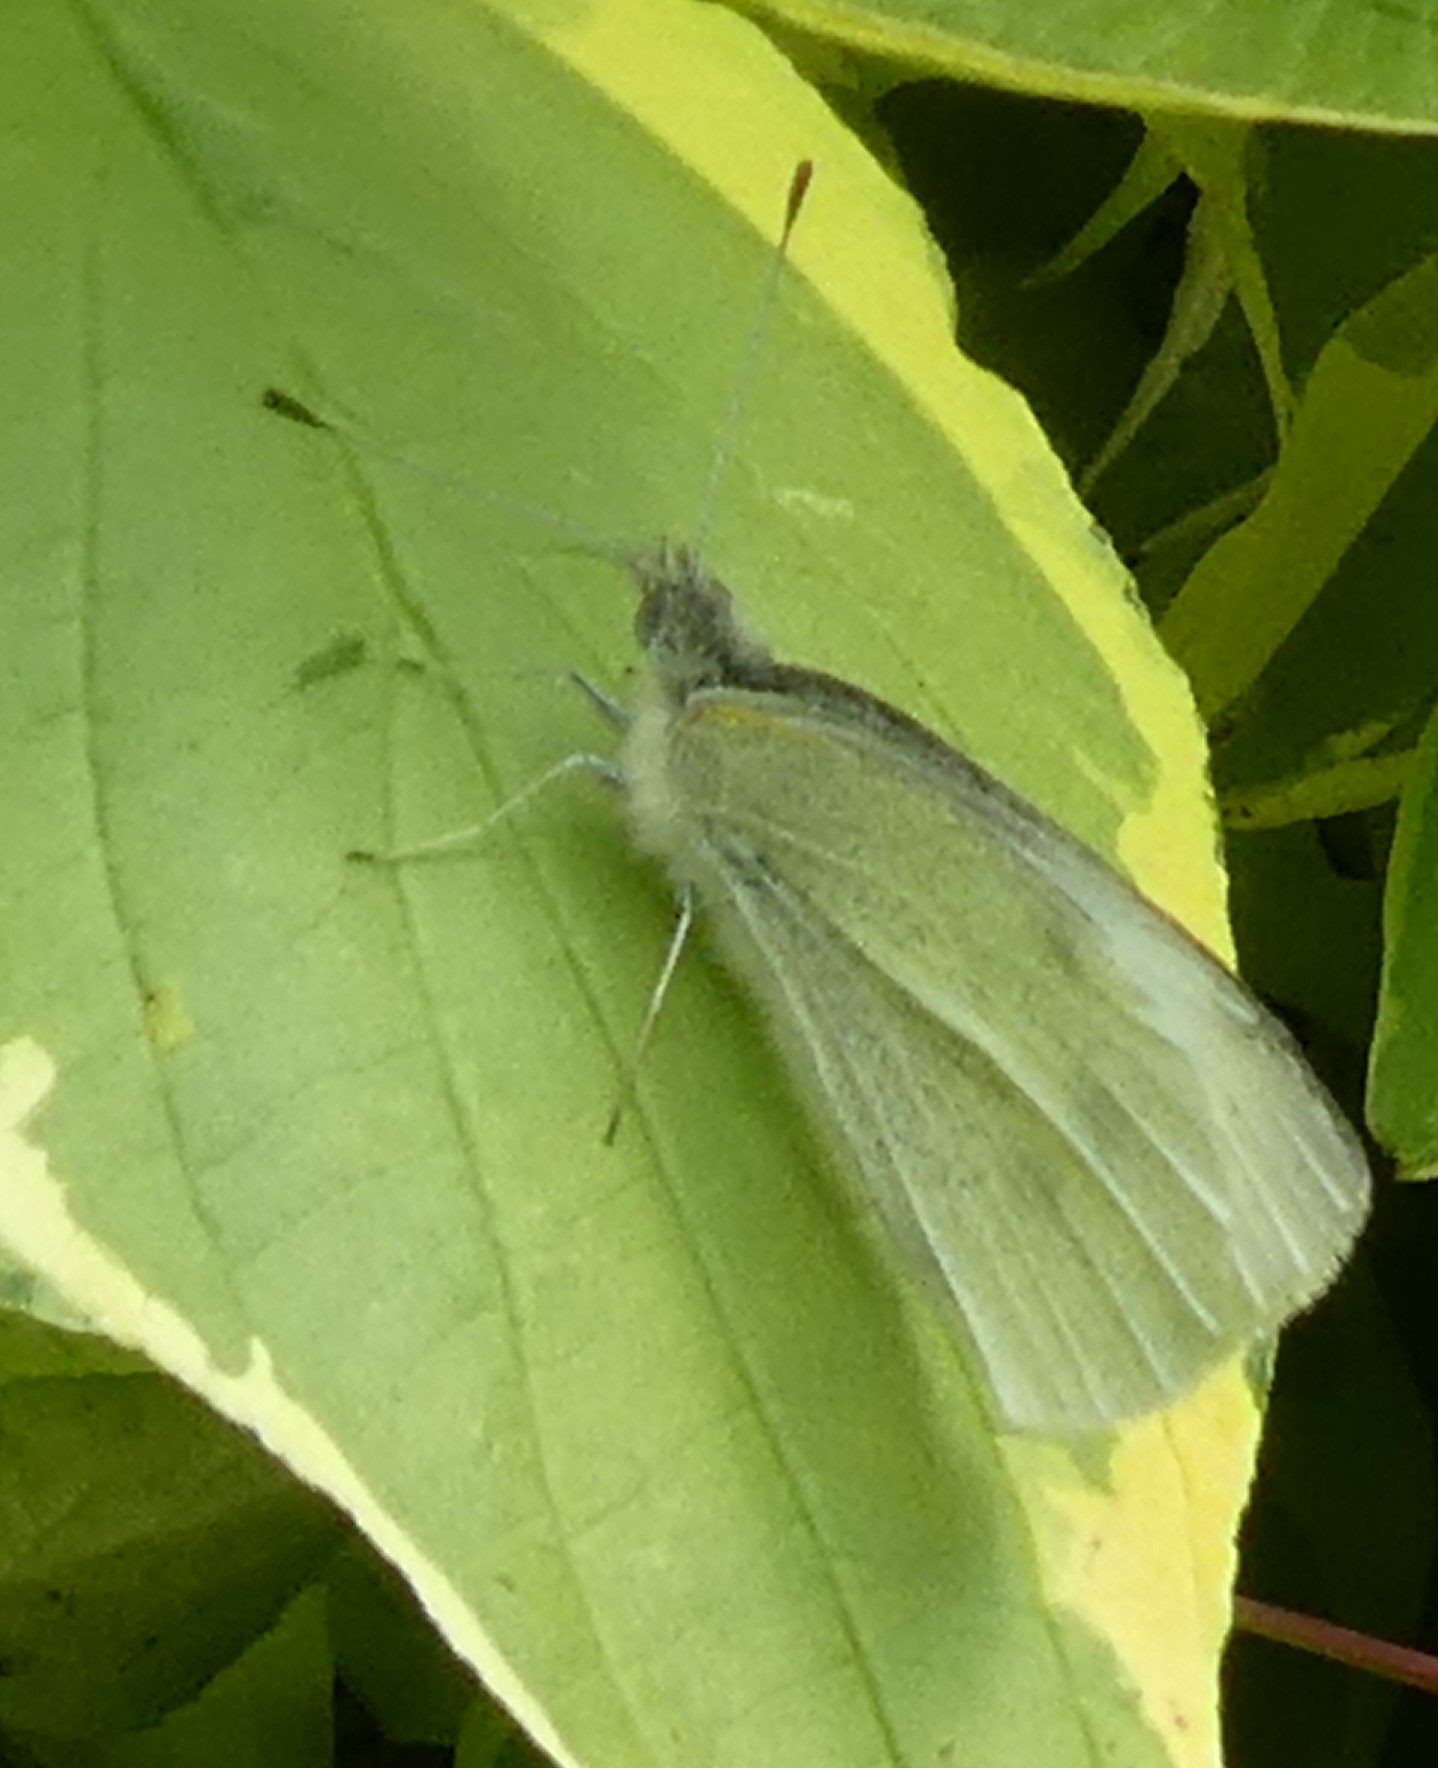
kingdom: Animalia
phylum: Arthropoda
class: Insecta
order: Lepidoptera
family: Pieridae
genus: Pieris
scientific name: Pieris rapae
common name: Small white
